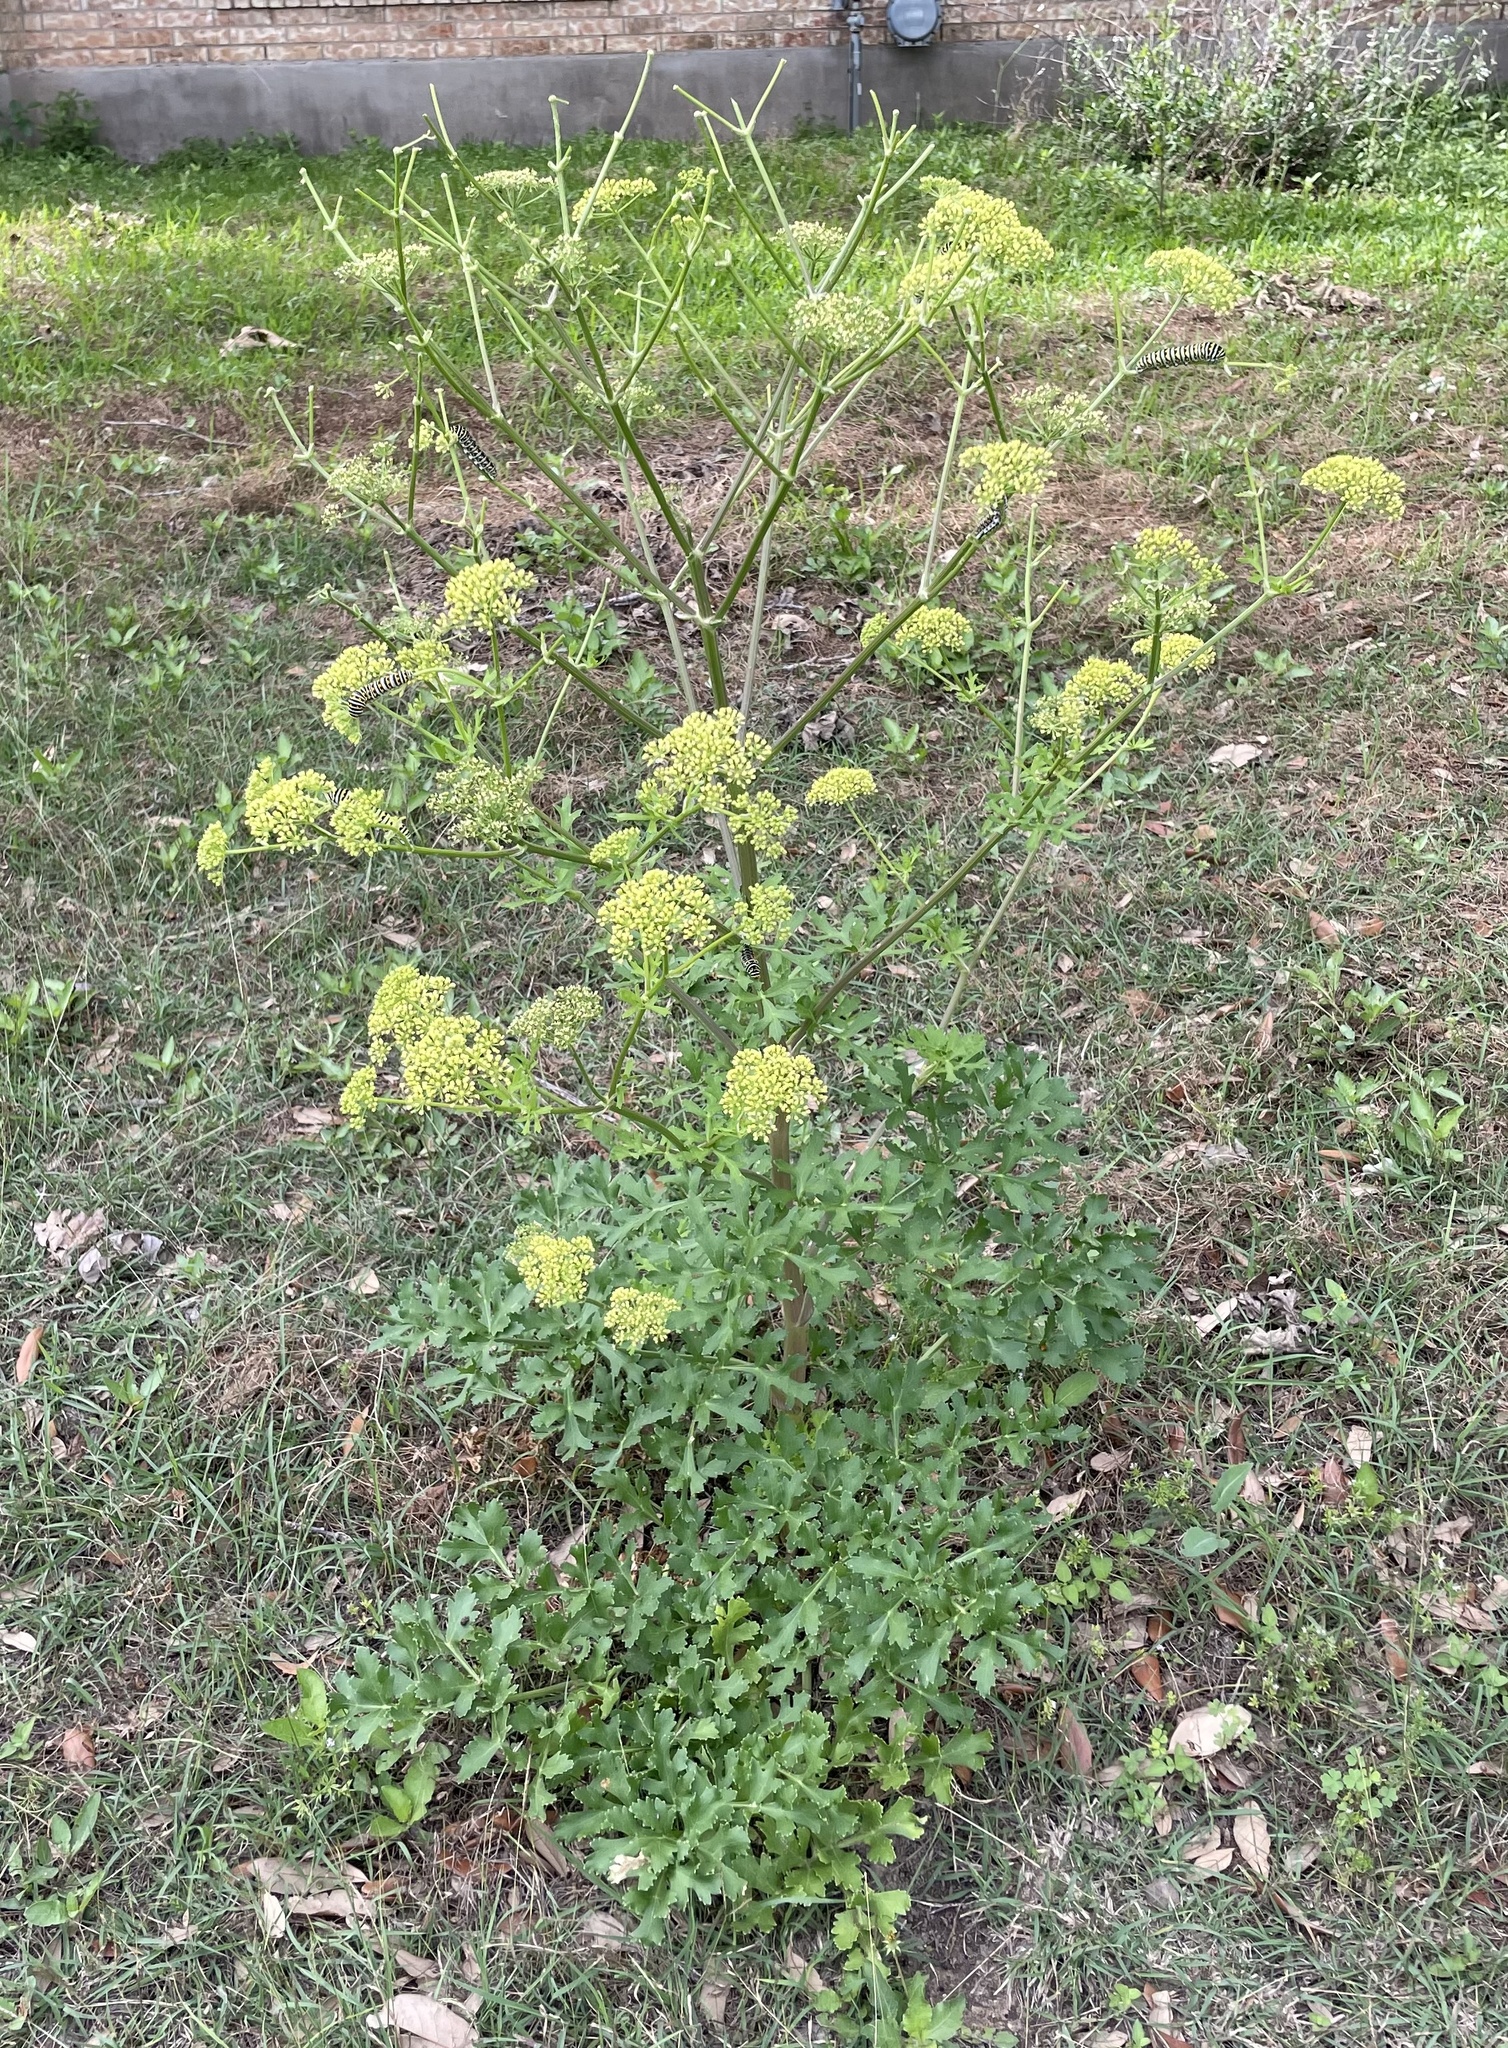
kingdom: Plantae
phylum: Tracheophyta
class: Magnoliopsida
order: Apiales
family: Apiaceae
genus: Polytaenia
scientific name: Polytaenia texana
